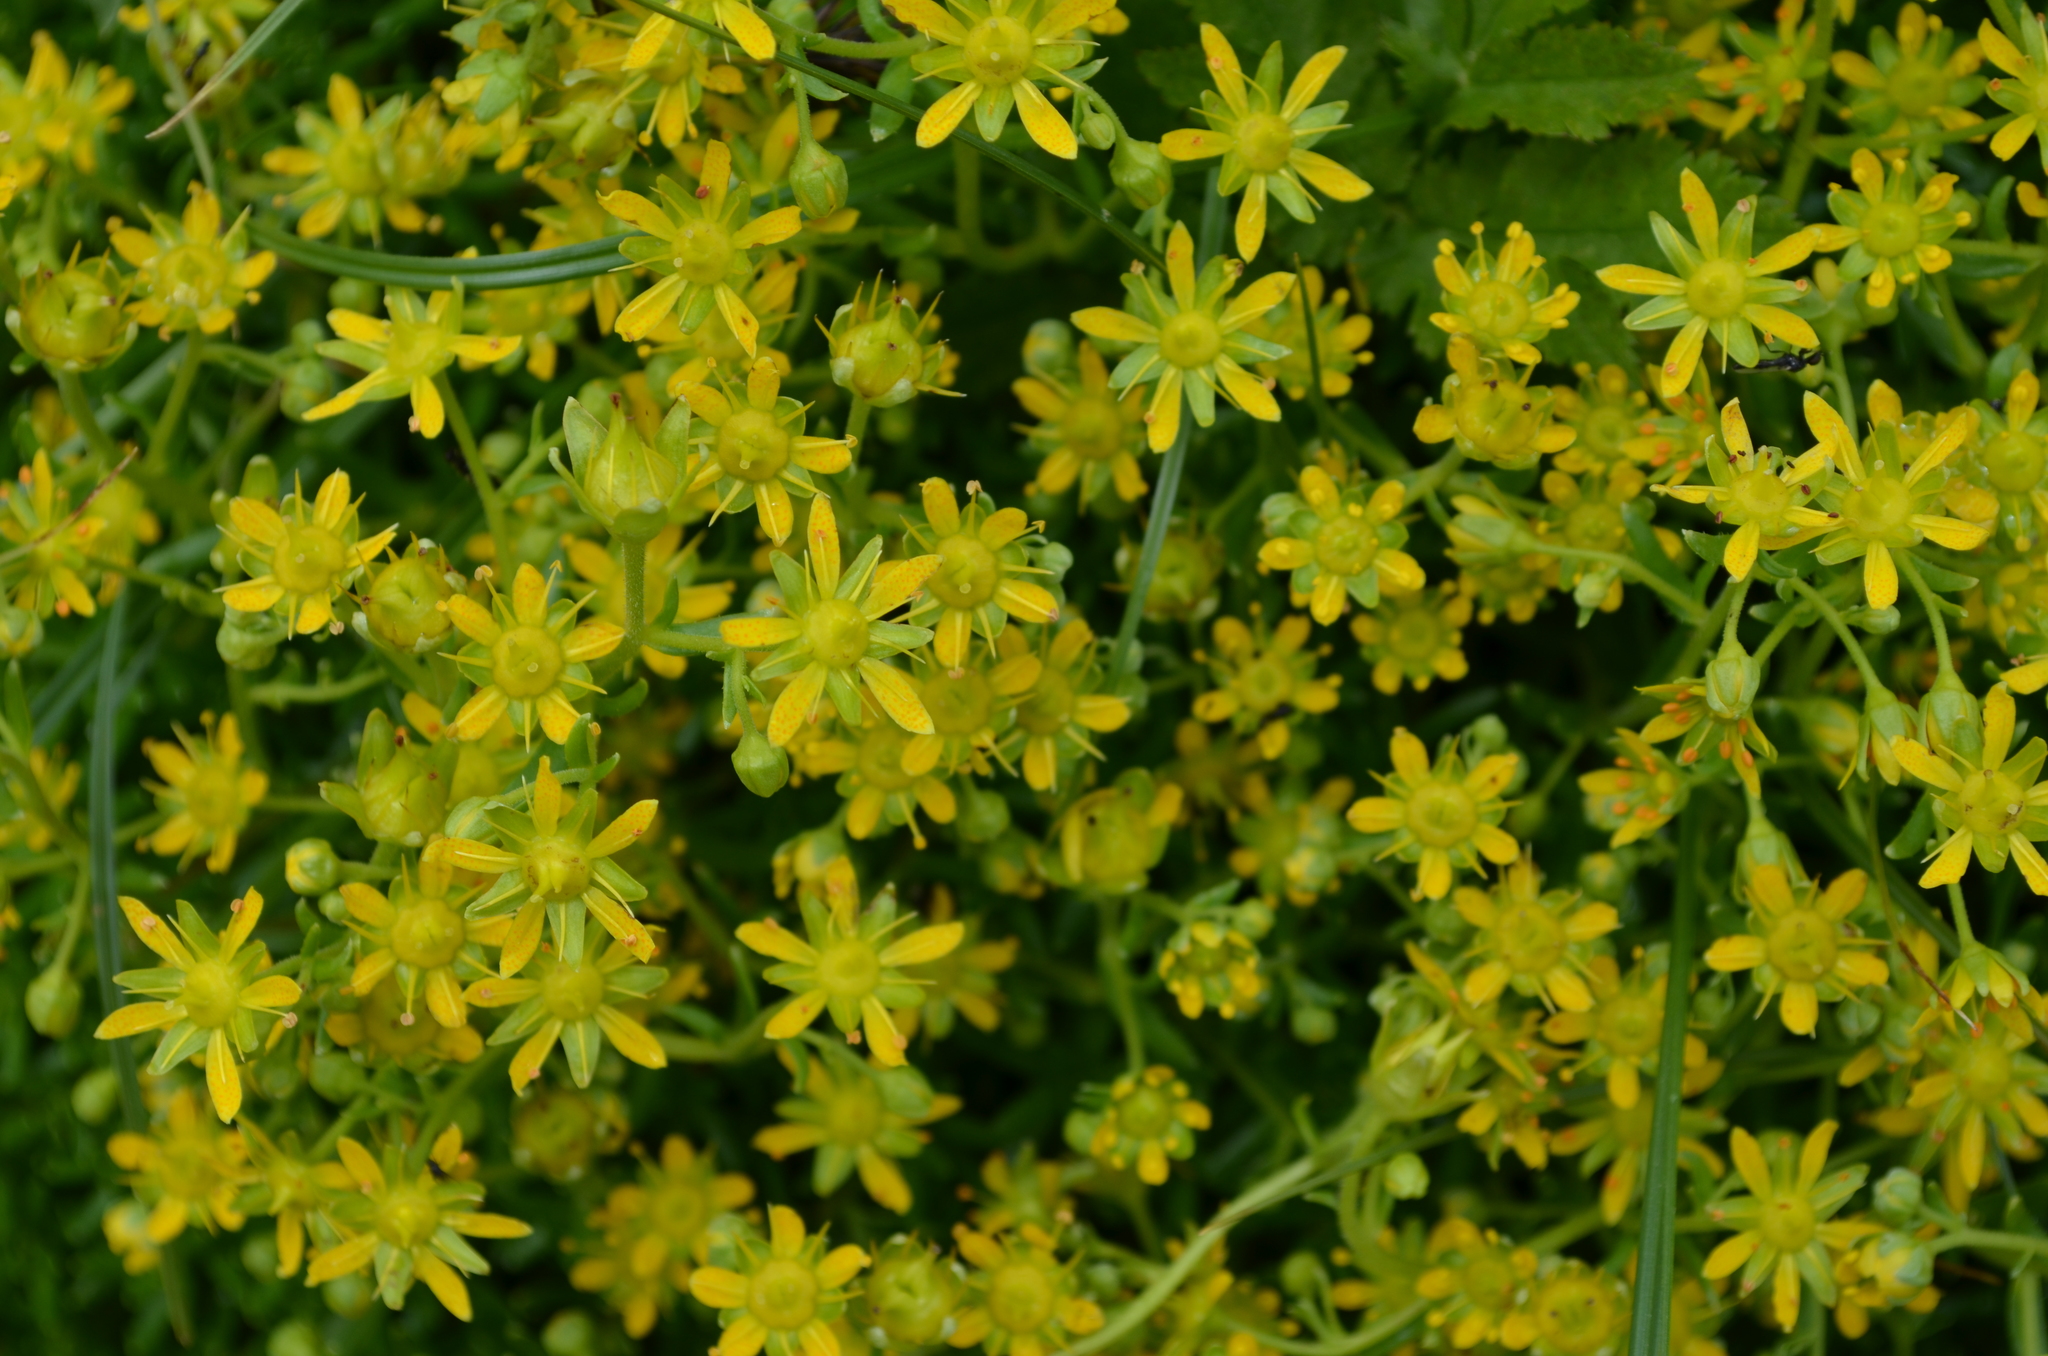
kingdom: Plantae
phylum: Tracheophyta
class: Magnoliopsida
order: Saxifragales
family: Saxifragaceae
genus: Saxifraga
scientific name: Saxifraga aizoides
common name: Yellow mountain saxifrage
